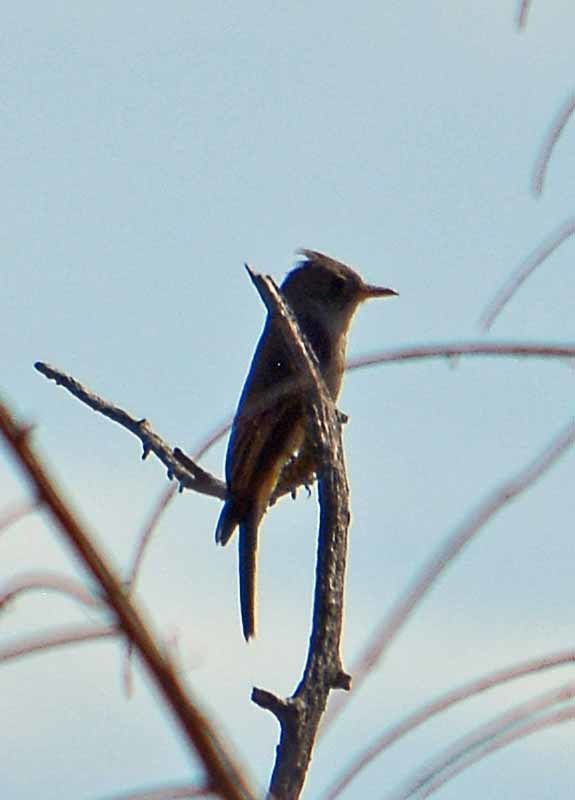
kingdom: Animalia
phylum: Chordata
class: Aves
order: Passeriformes
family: Tyrannidae
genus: Contopus
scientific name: Contopus pertinax
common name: Greater pewee
